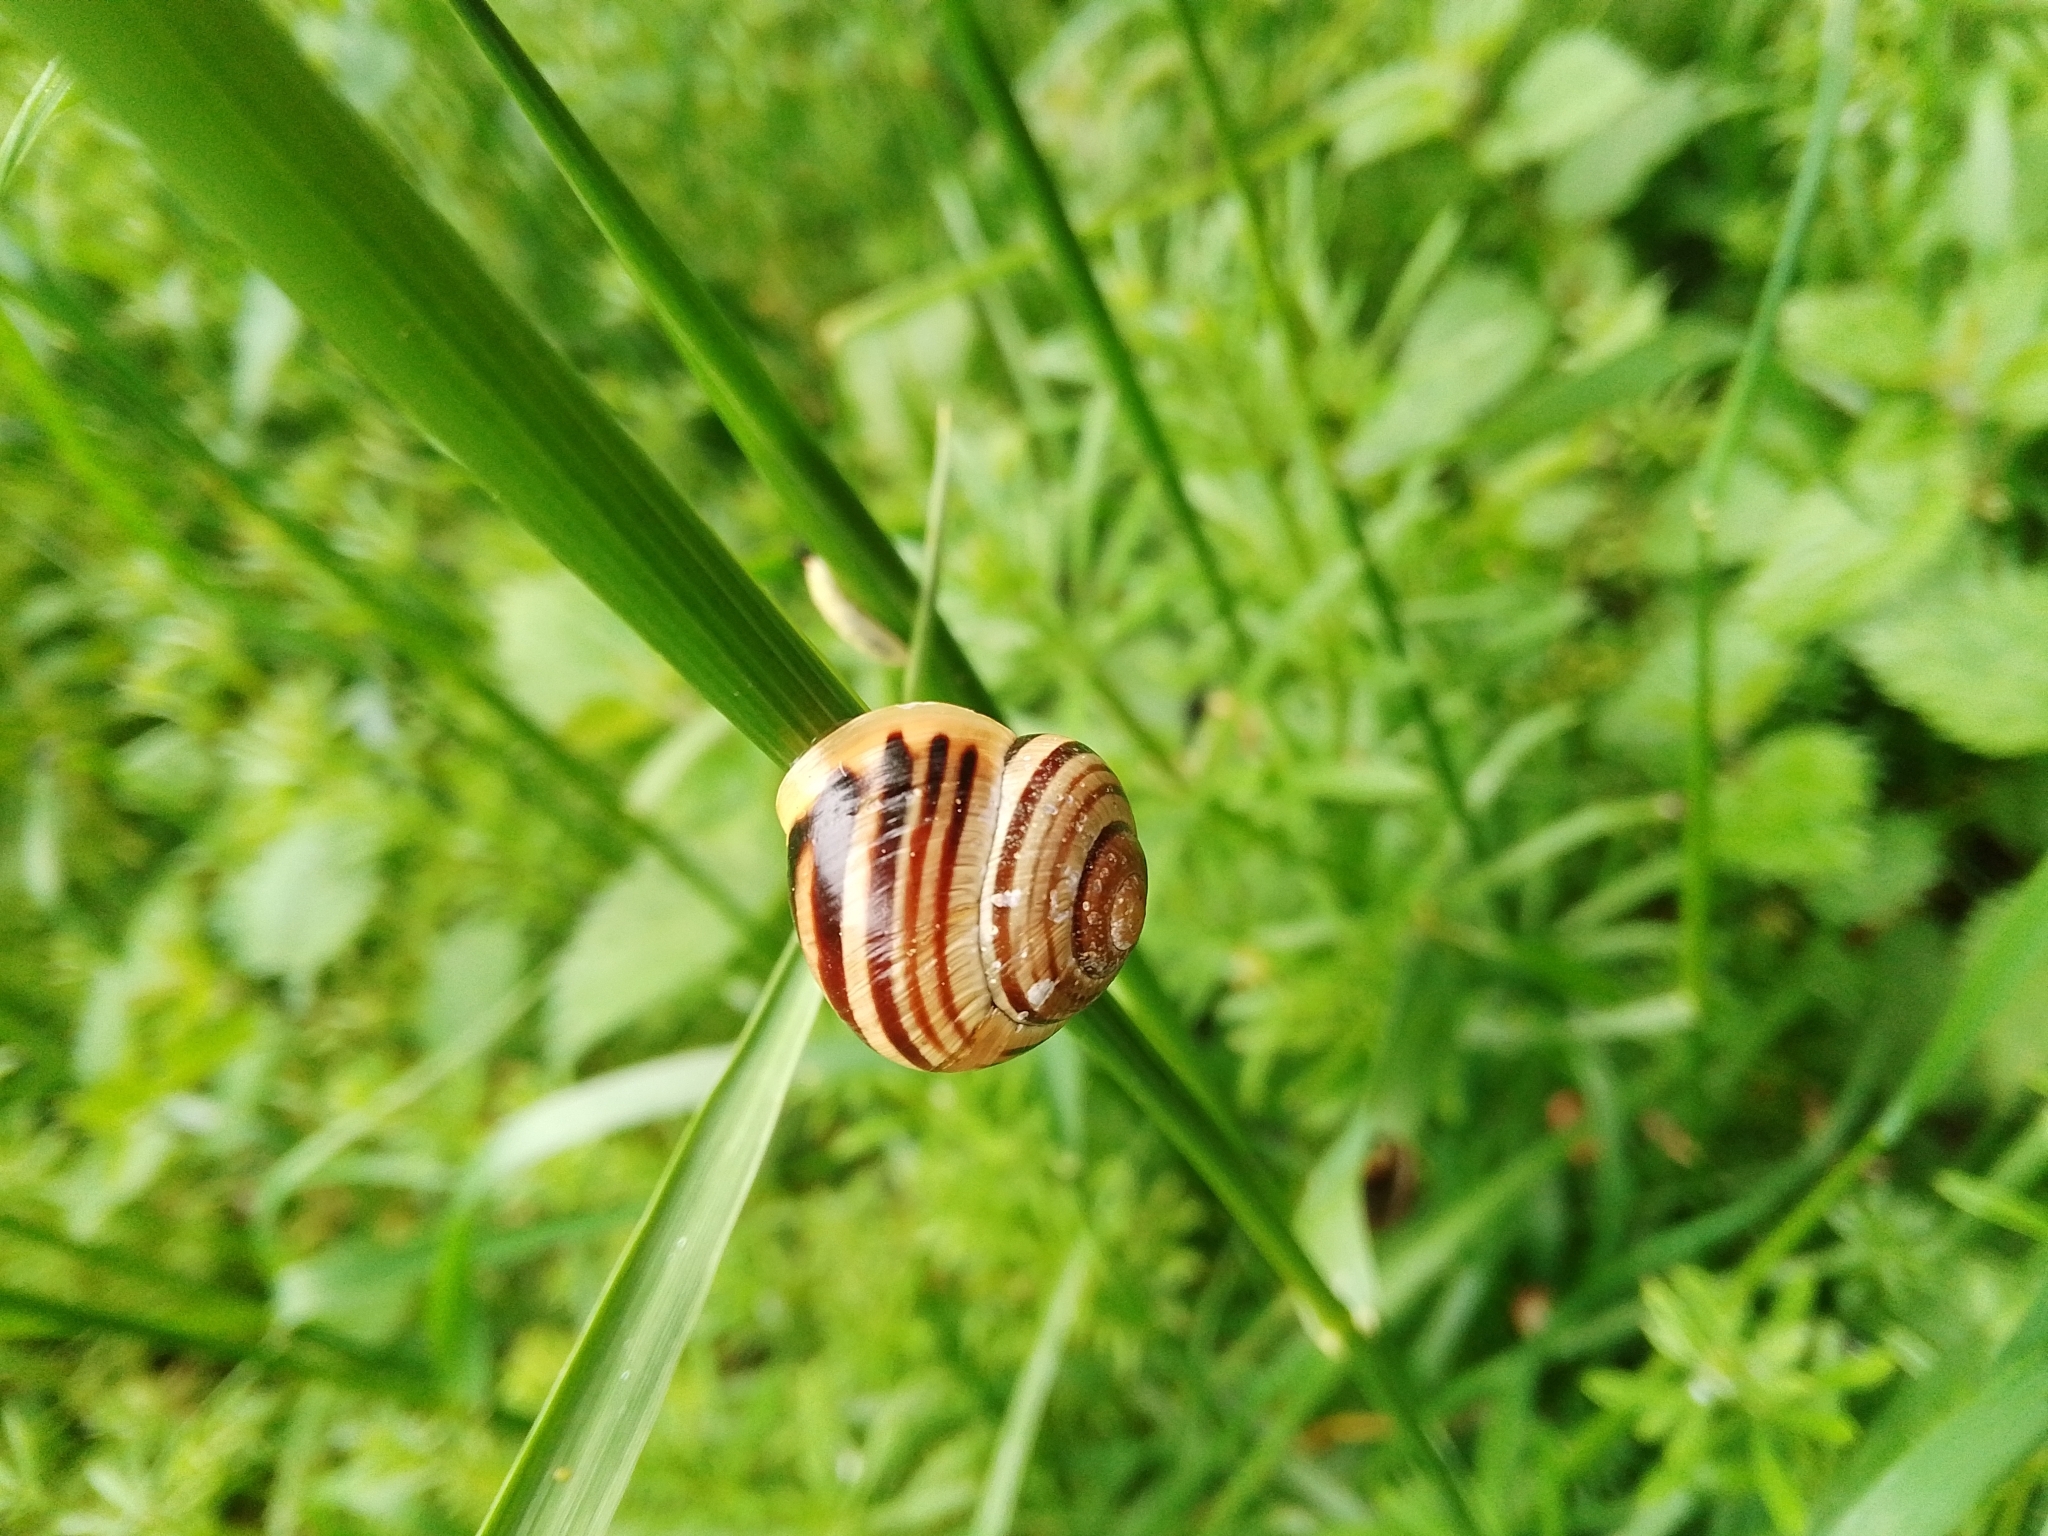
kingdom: Animalia
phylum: Mollusca
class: Gastropoda
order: Stylommatophora
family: Helicidae
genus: Cepaea
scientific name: Cepaea hortensis
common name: White-lip gardensnail
